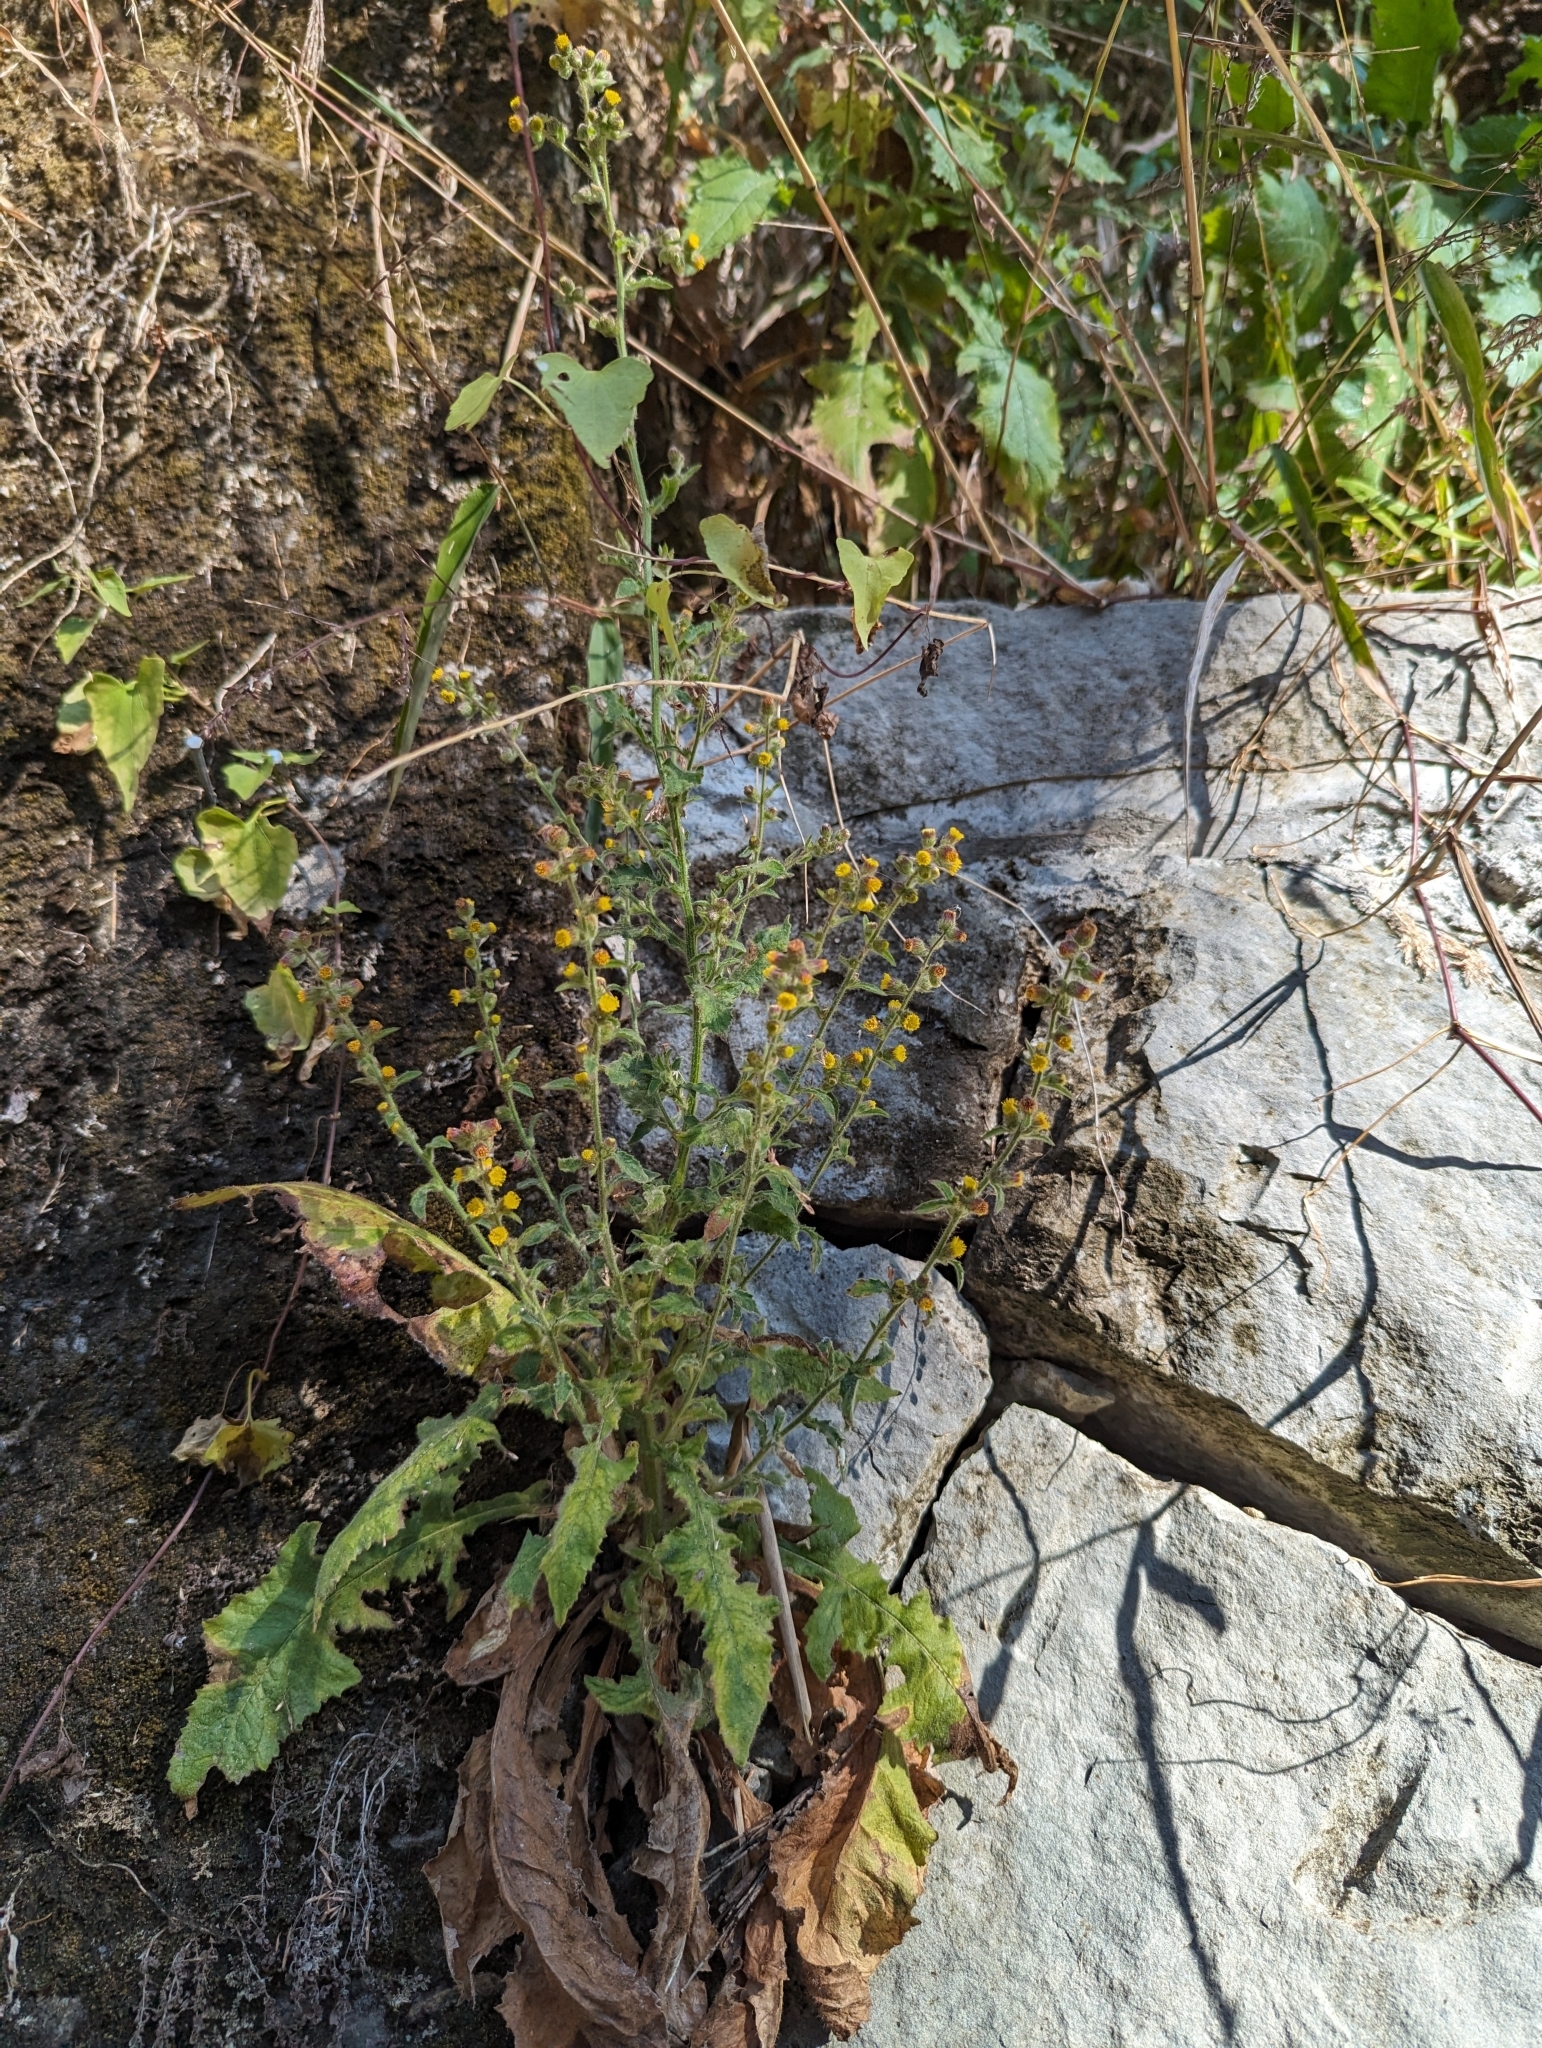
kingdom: Plantae
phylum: Tracheophyta
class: Magnoliopsida
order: Asterales
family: Asteraceae
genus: Blumea
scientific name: Blumea sinuata
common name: Cutleaf false oxtongue
